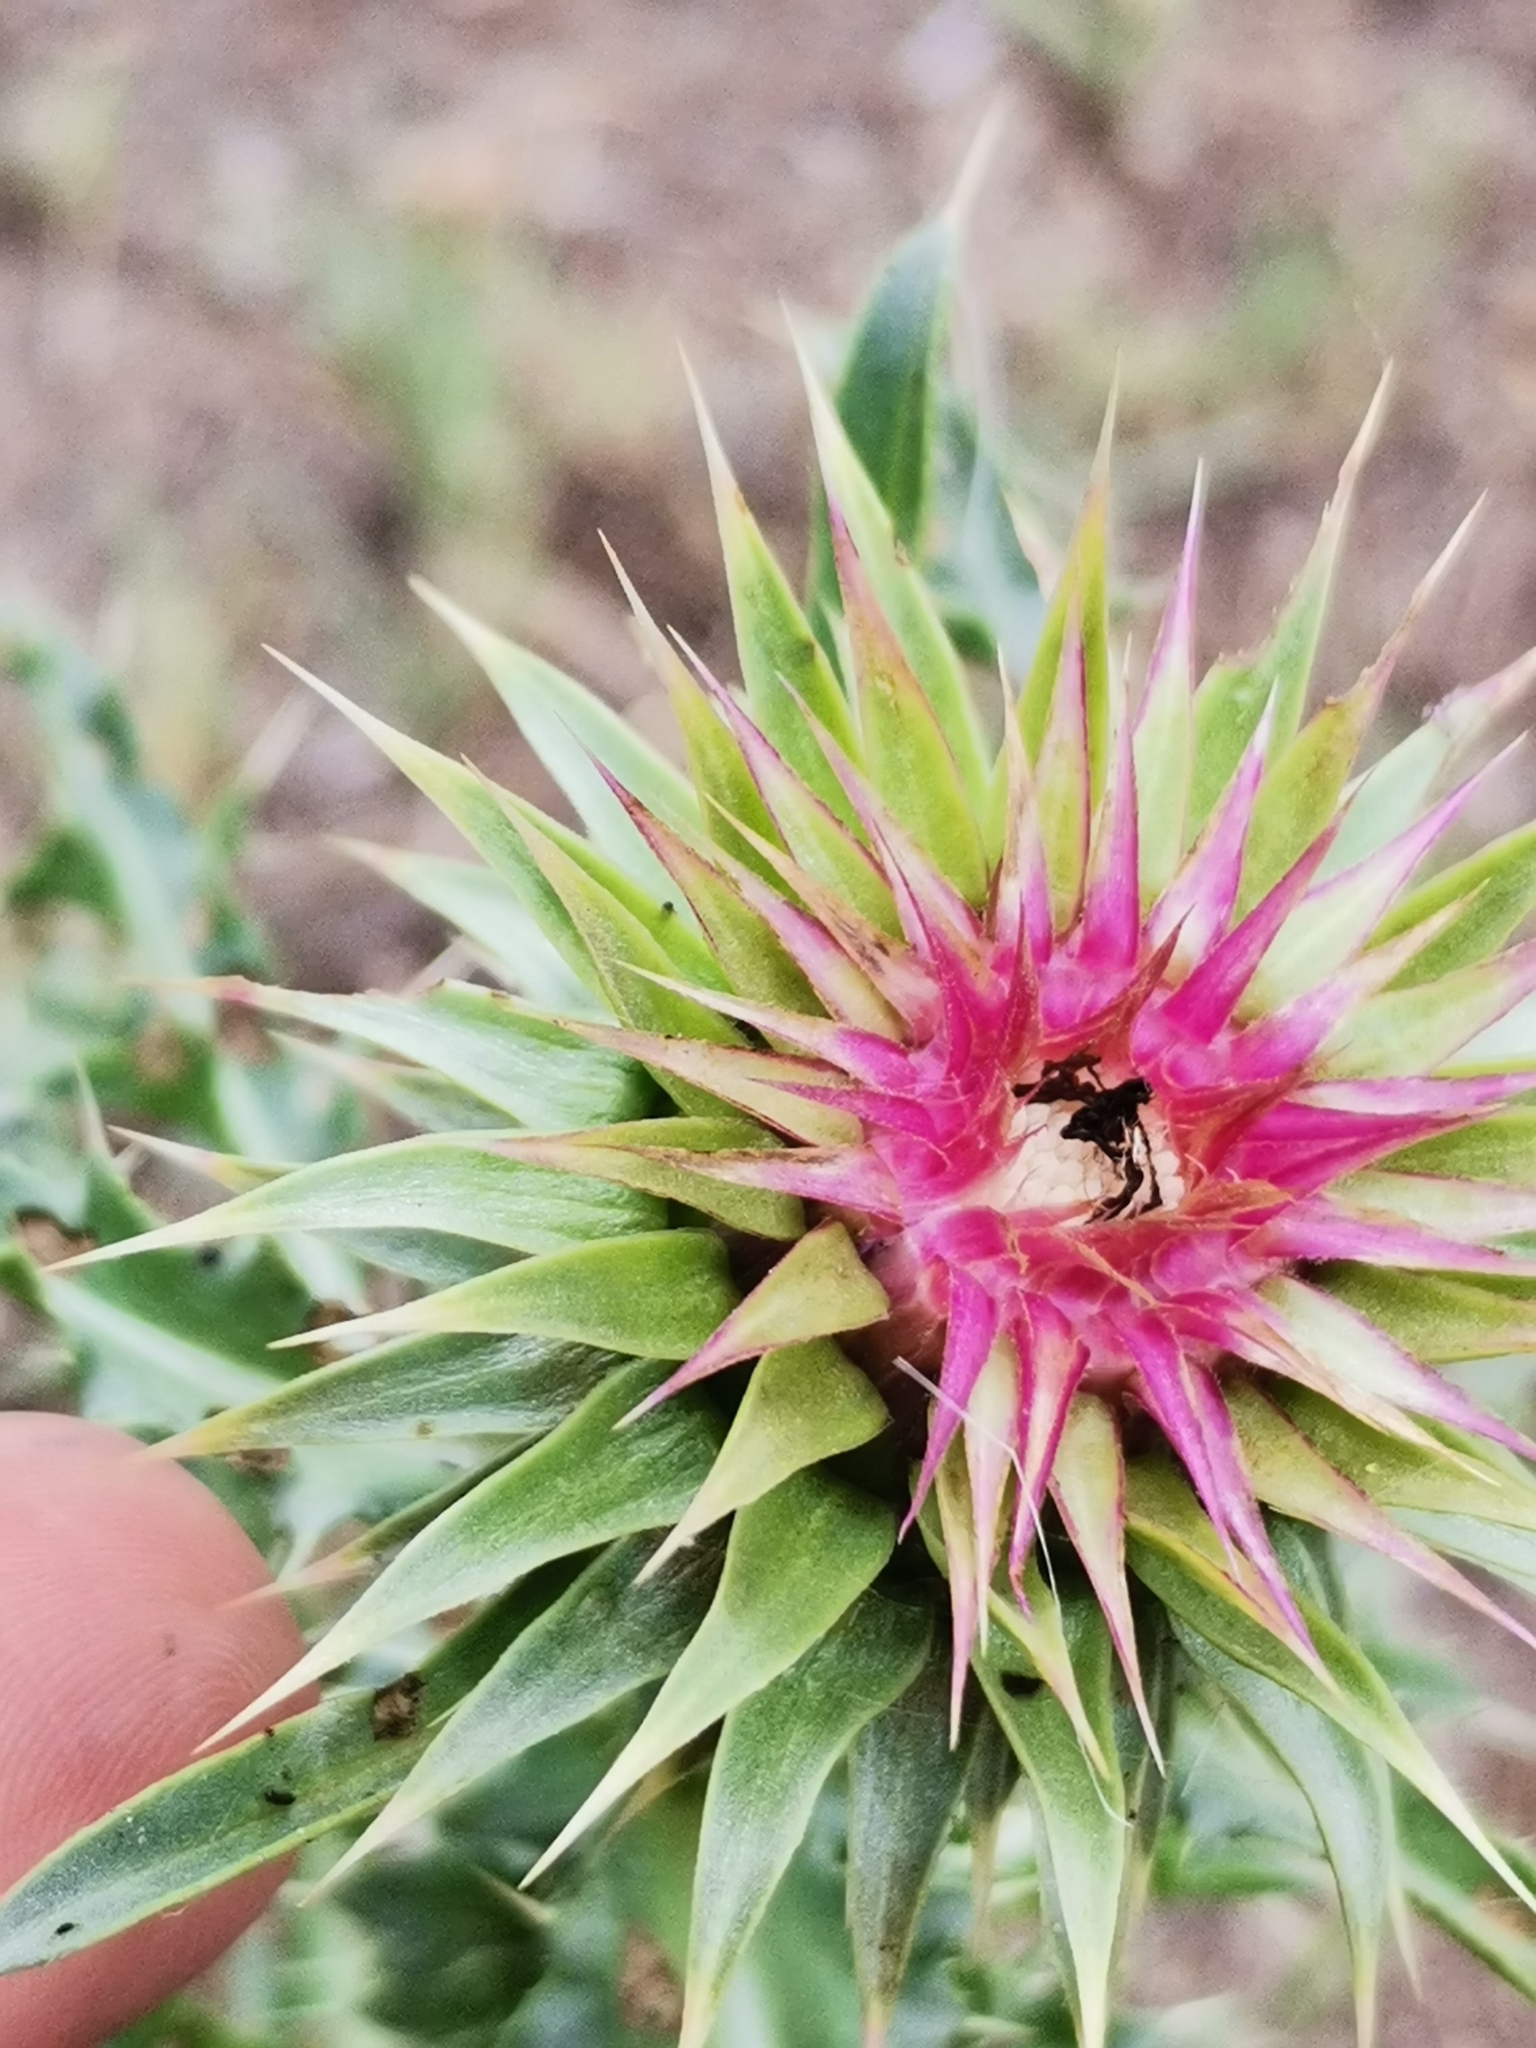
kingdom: Plantae
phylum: Tracheophyta
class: Magnoliopsida
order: Asterales
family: Asteraceae
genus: Carduus
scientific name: Carduus nutans
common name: Musk thistle
